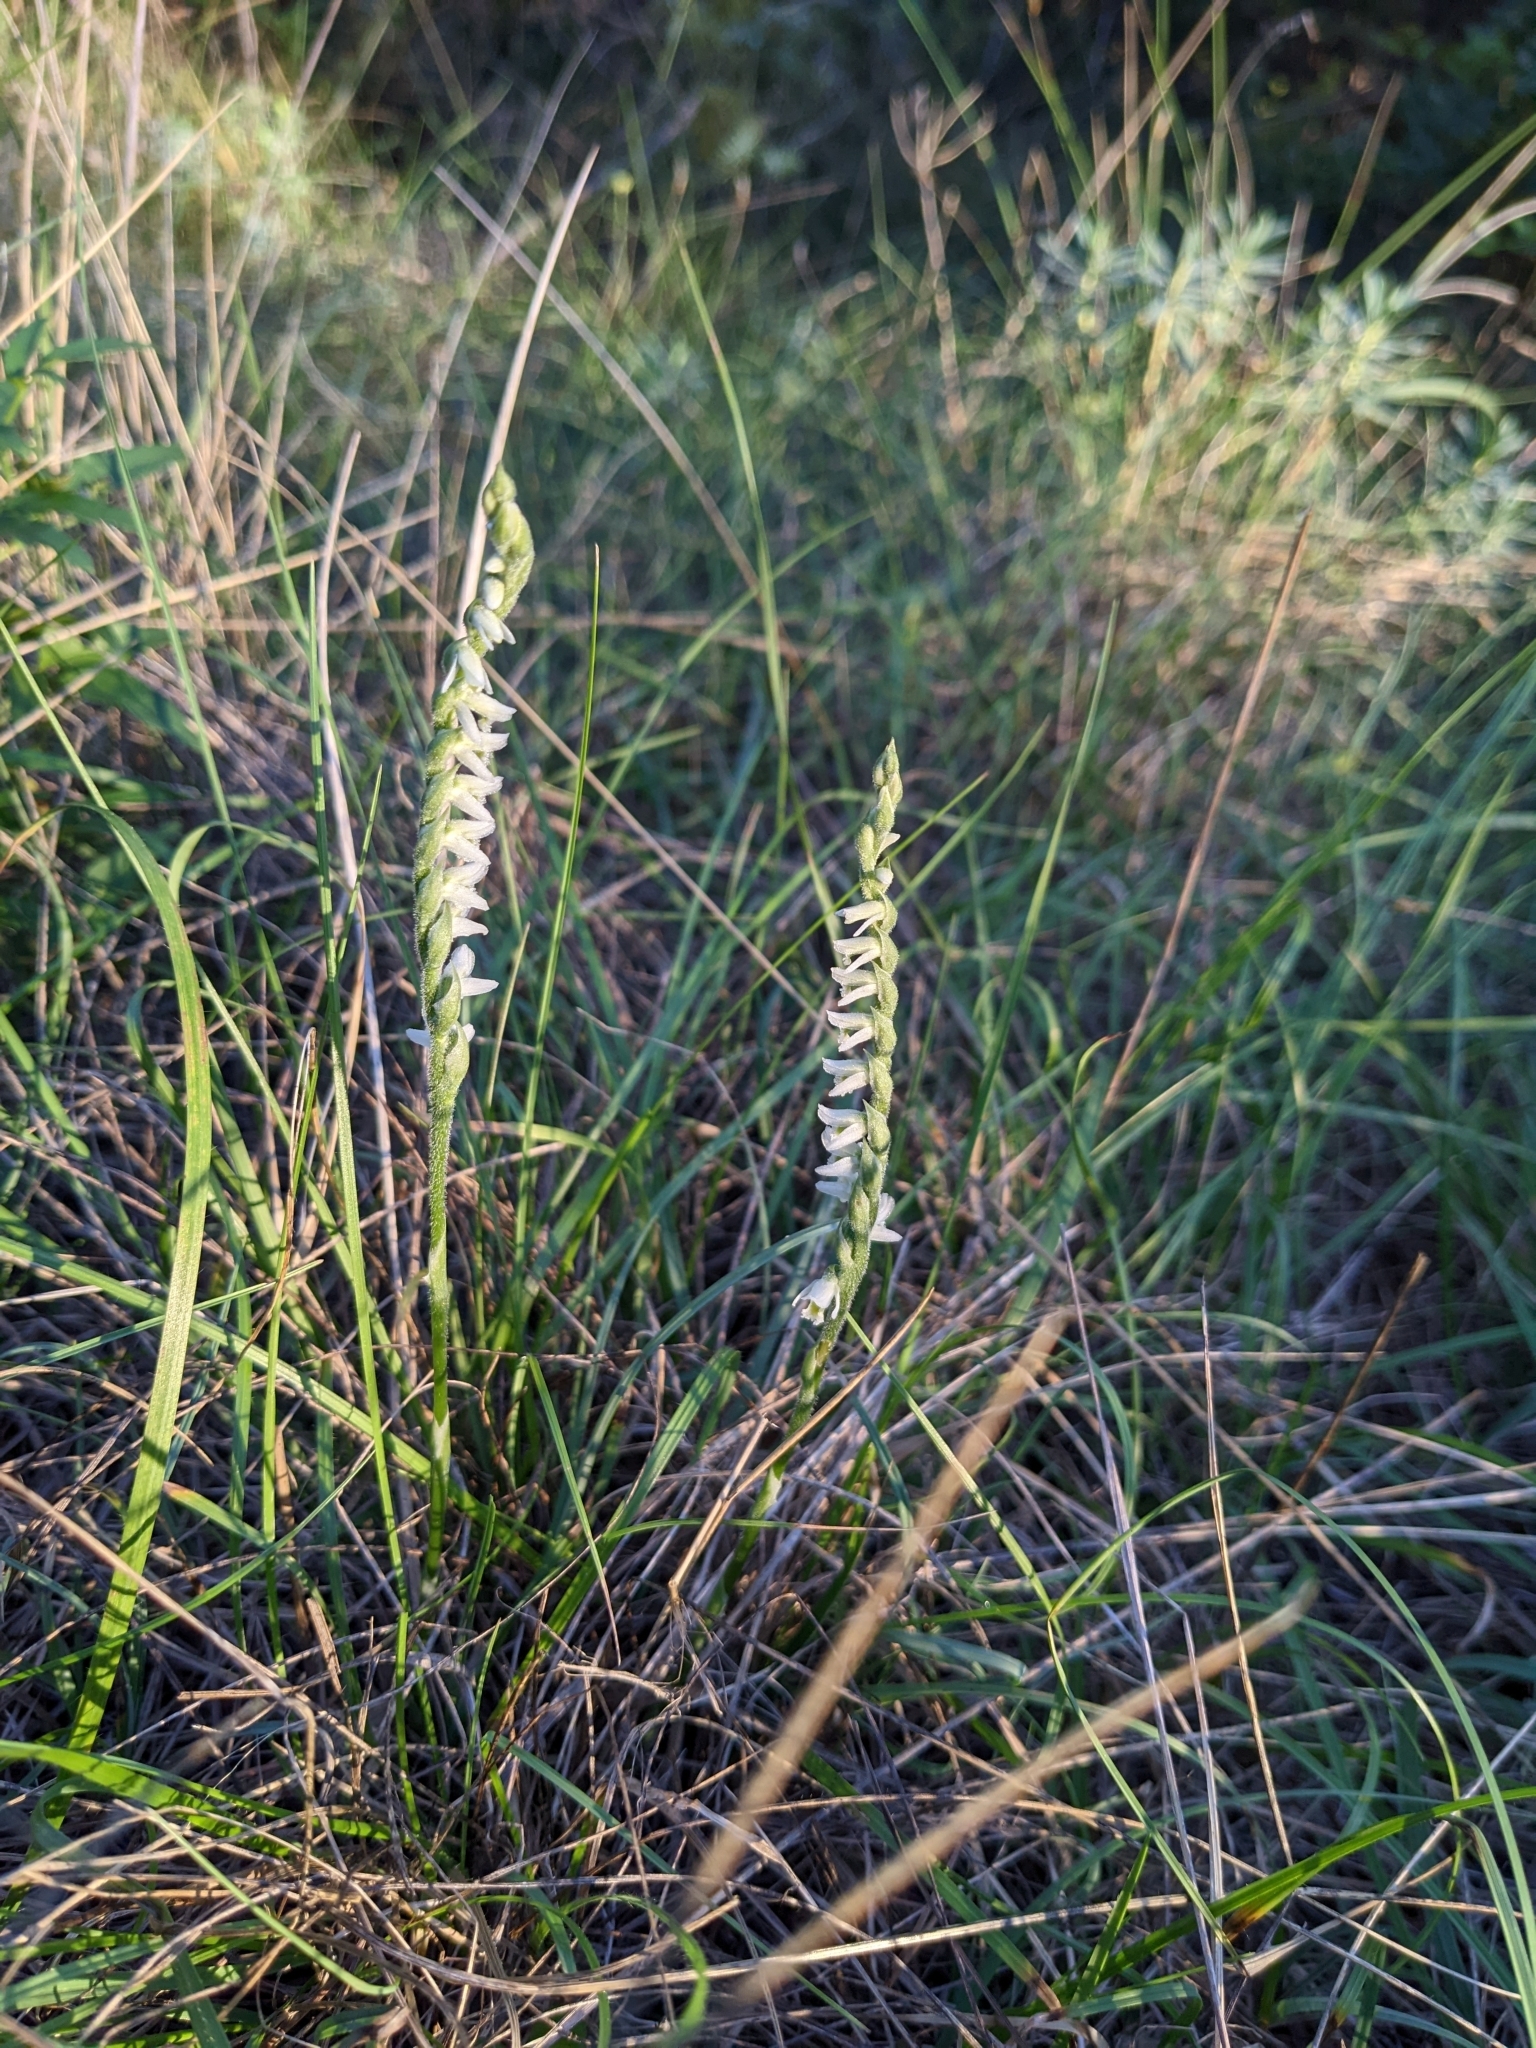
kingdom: Plantae
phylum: Tracheophyta
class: Liliopsida
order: Asparagales
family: Orchidaceae
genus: Spiranthes
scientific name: Spiranthes spiralis
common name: Autumn lady's-tresses
